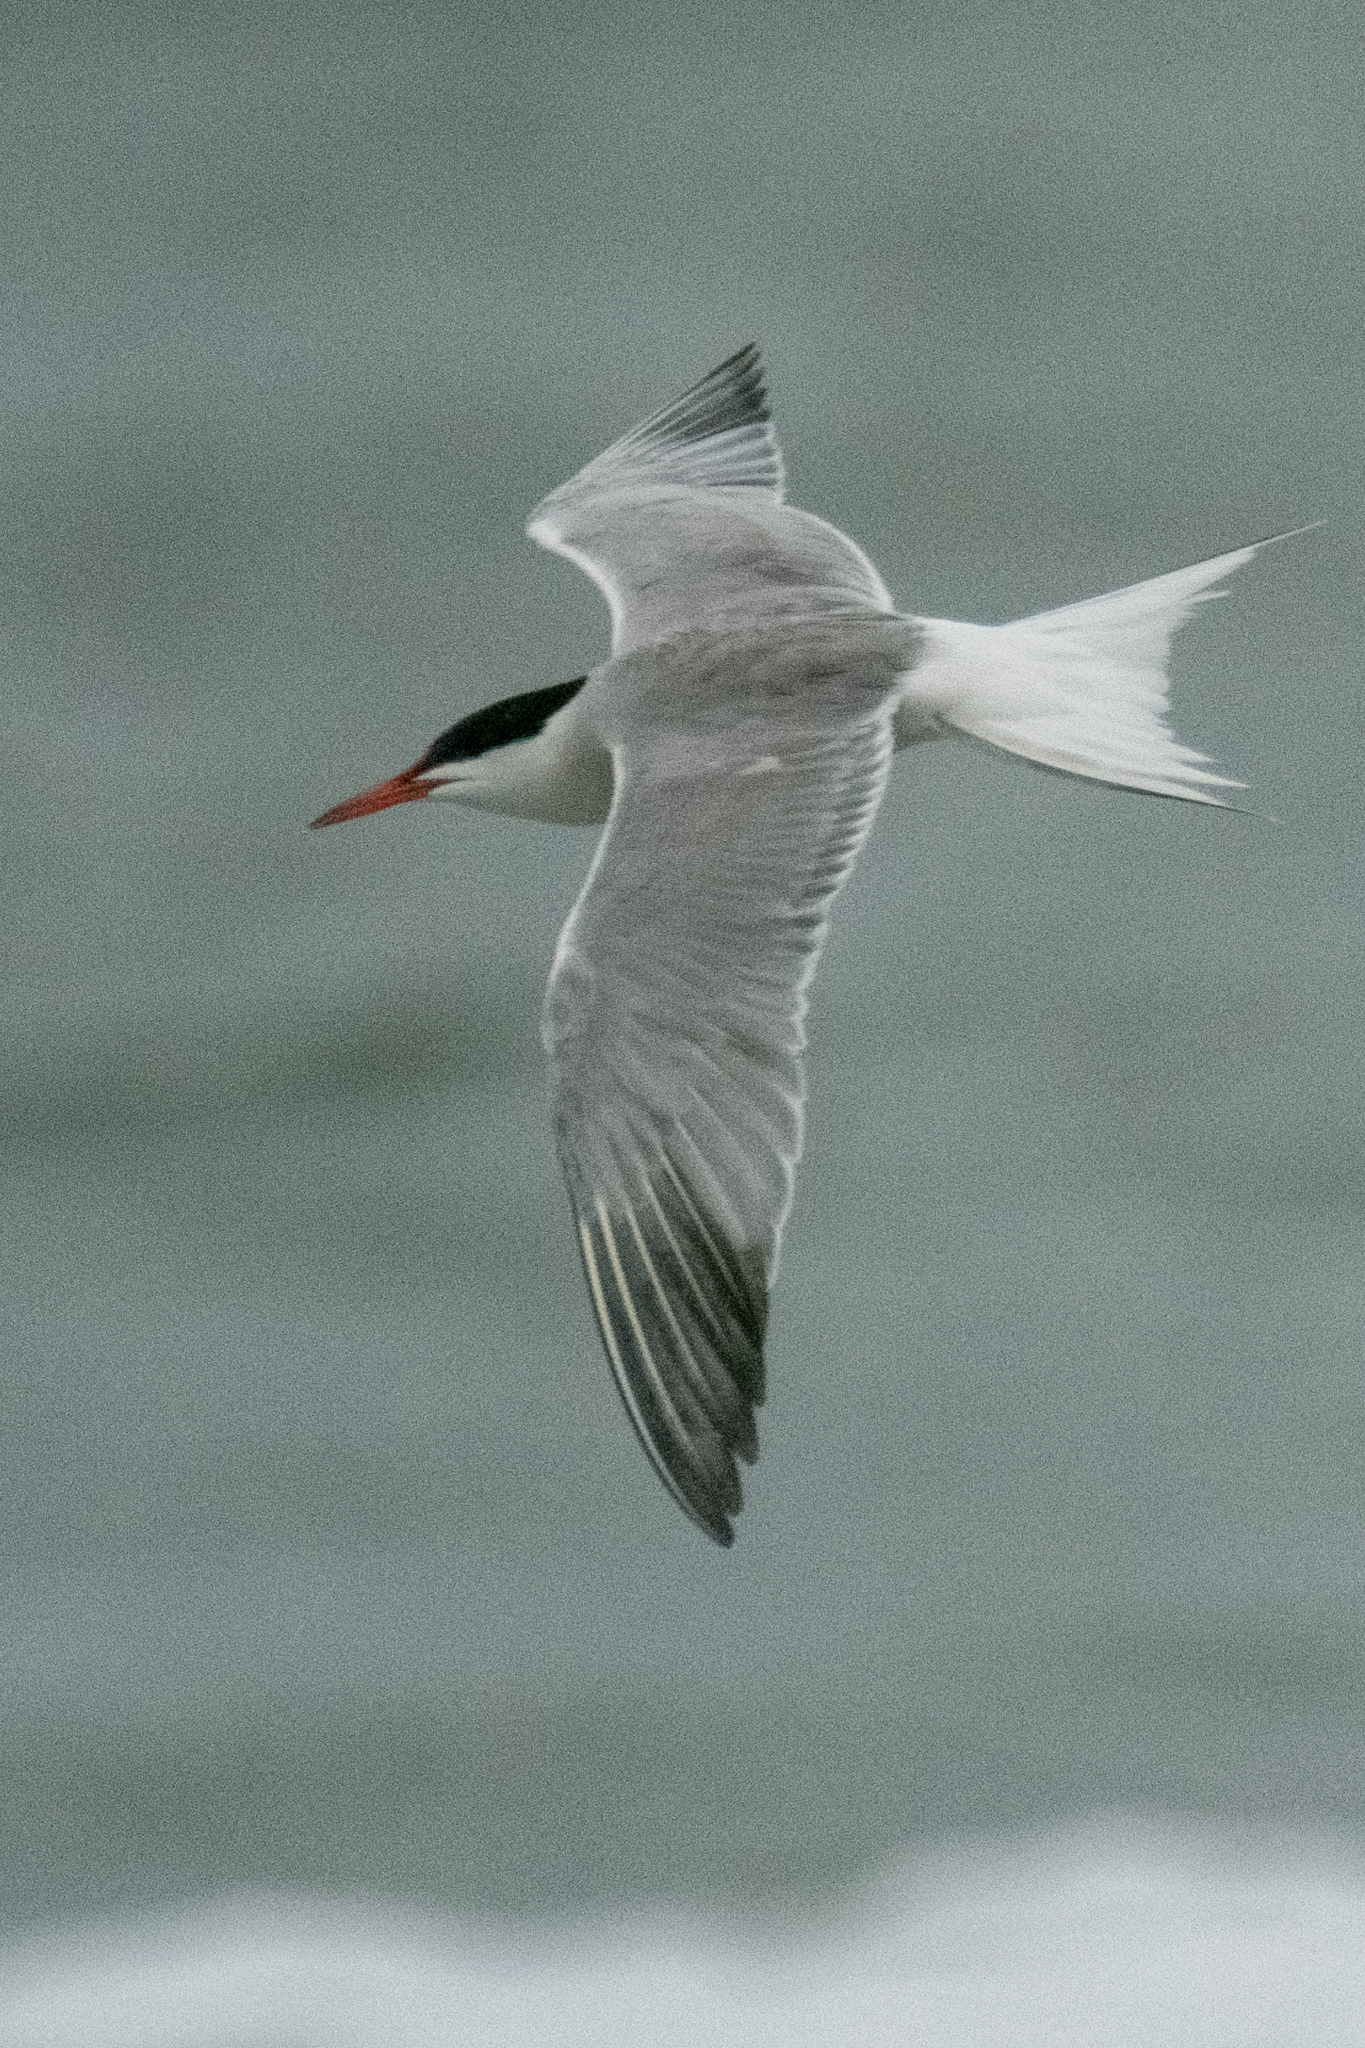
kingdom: Animalia
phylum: Chordata
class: Aves
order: Charadriiformes
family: Laridae
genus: Sterna
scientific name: Sterna hirundo
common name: Common tern
